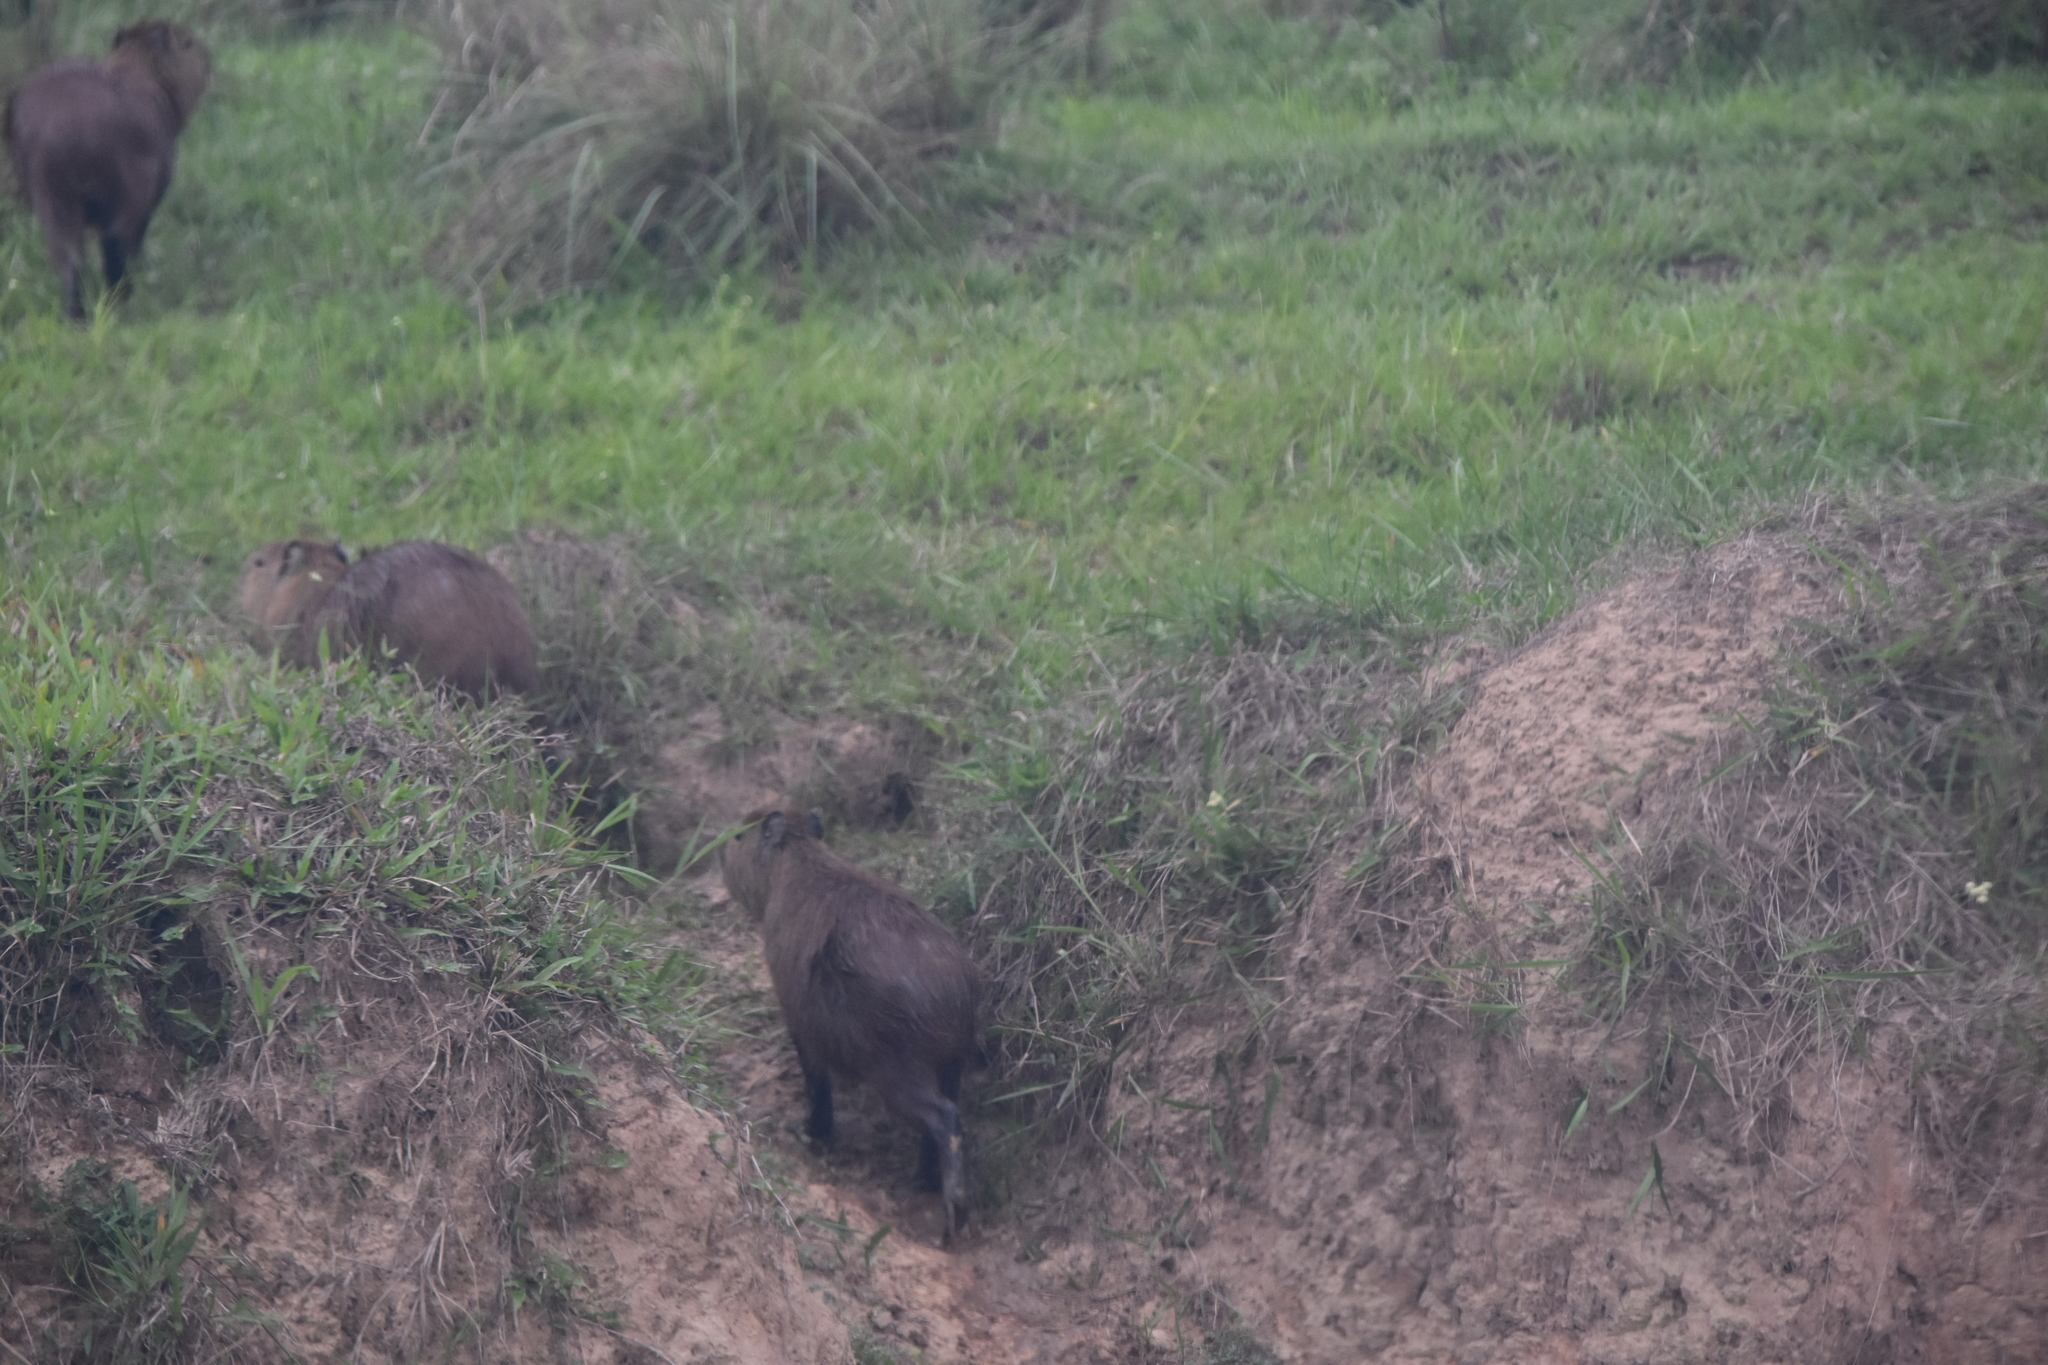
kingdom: Animalia
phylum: Chordata
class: Mammalia
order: Rodentia
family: Caviidae
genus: Hydrochoerus
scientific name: Hydrochoerus hydrochaeris
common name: Capybara
